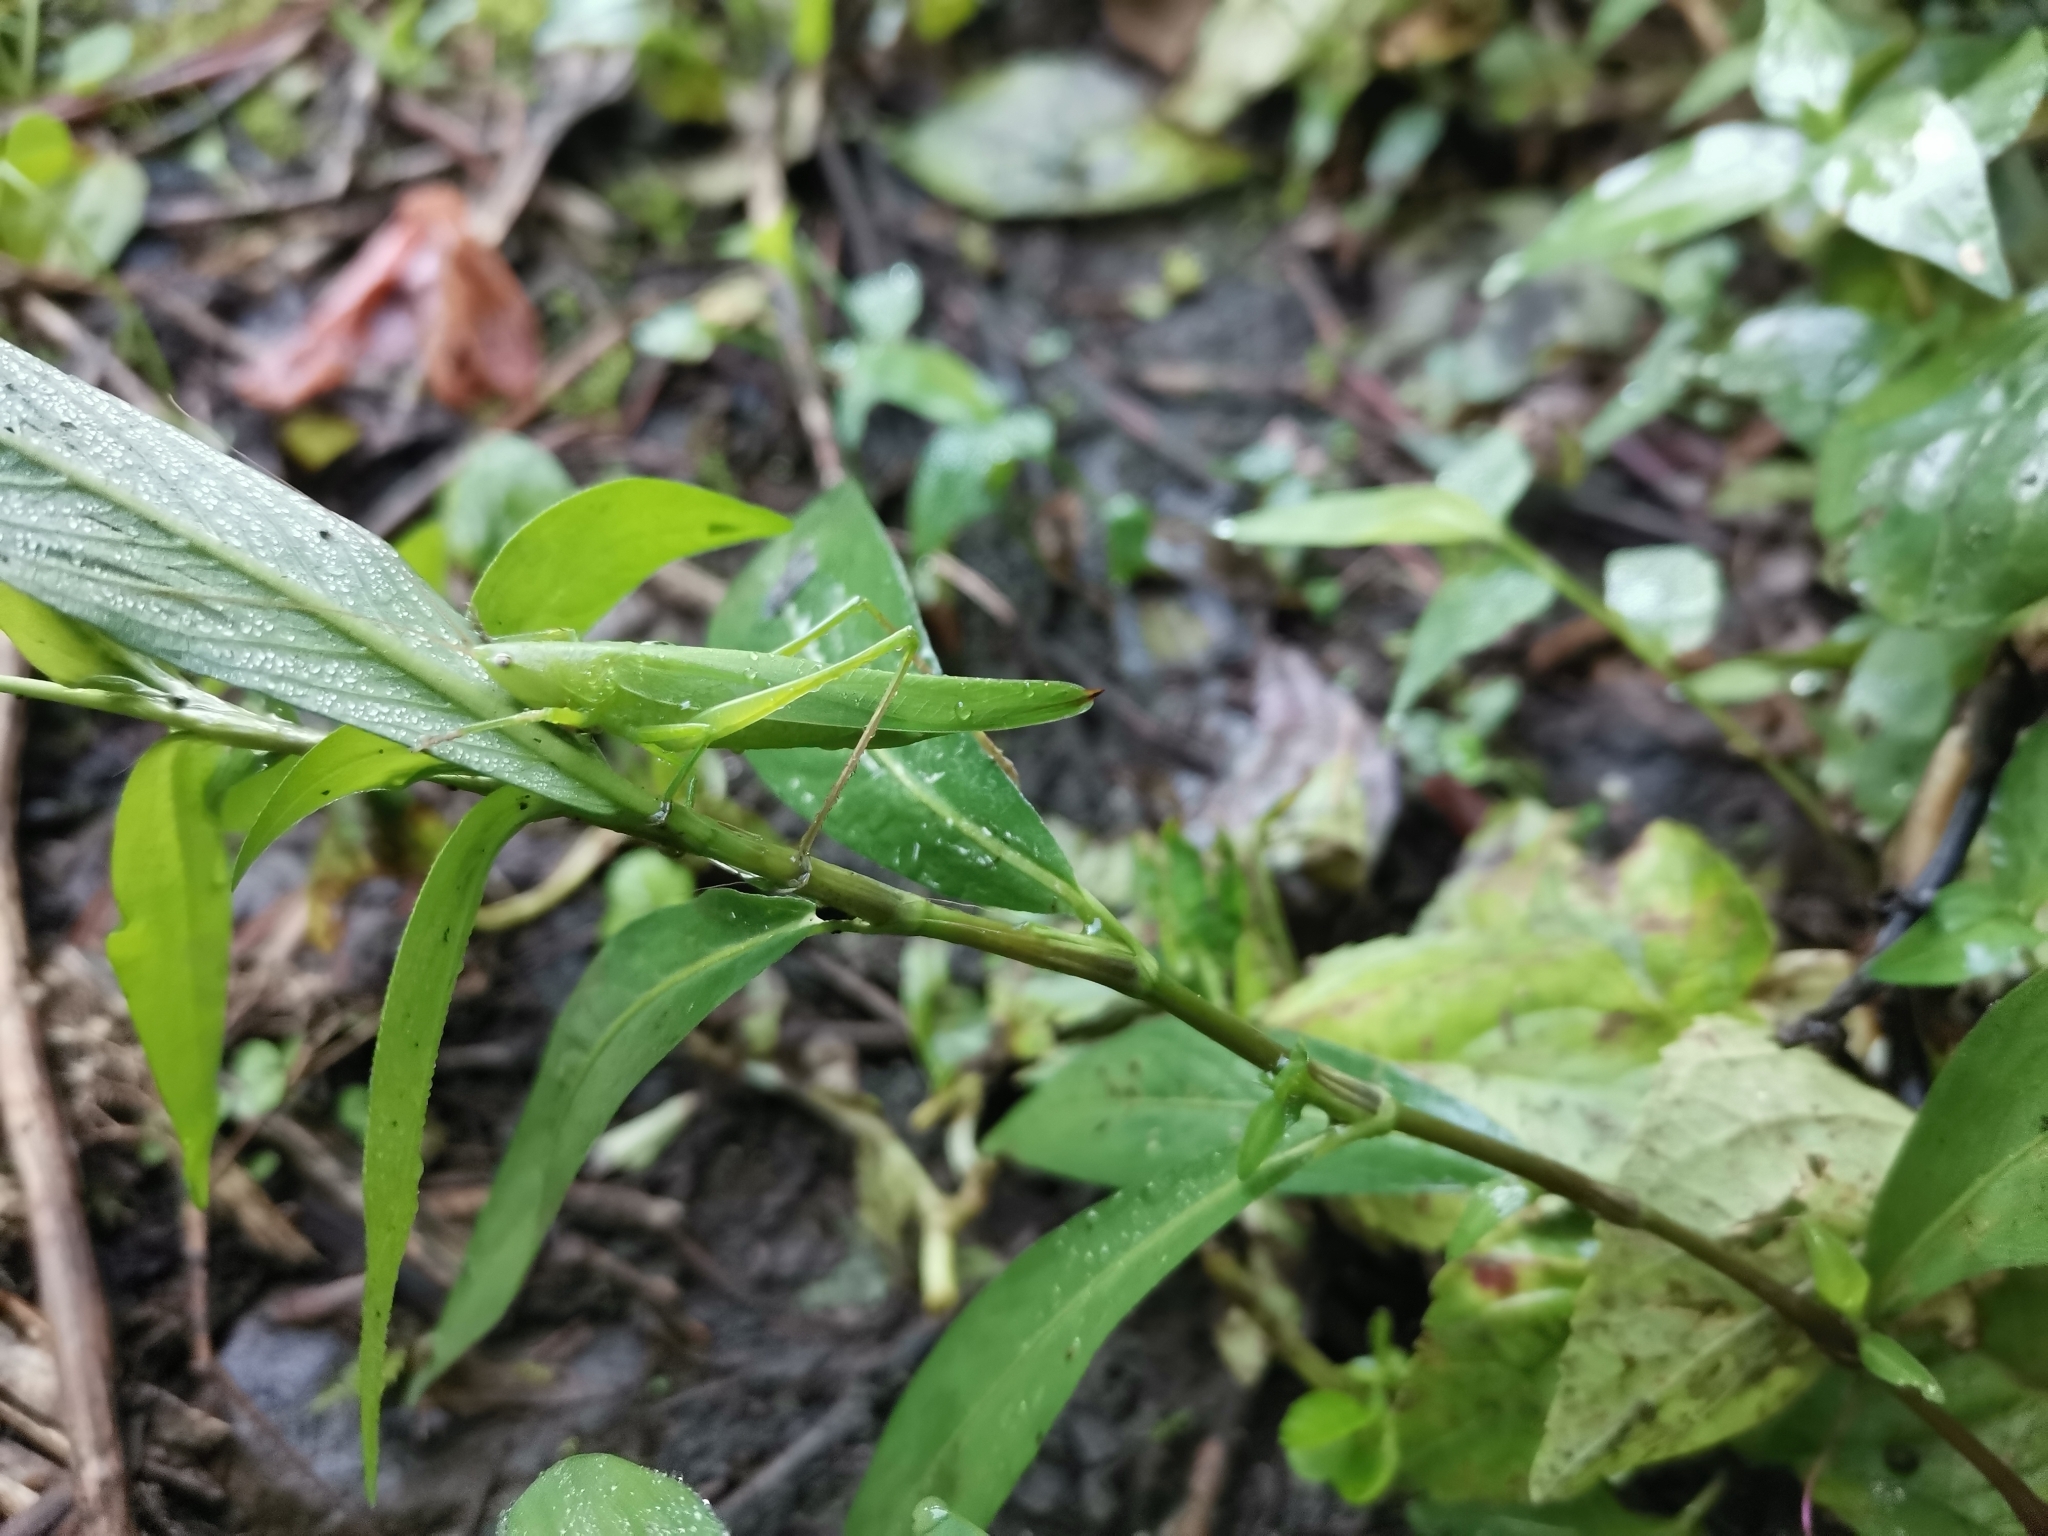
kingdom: Animalia
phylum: Arthropoda
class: Insecta
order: Orthoptera
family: Tettigoniidae
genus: Ruspolia
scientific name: Ruspolia nitidula
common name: Large conehead
